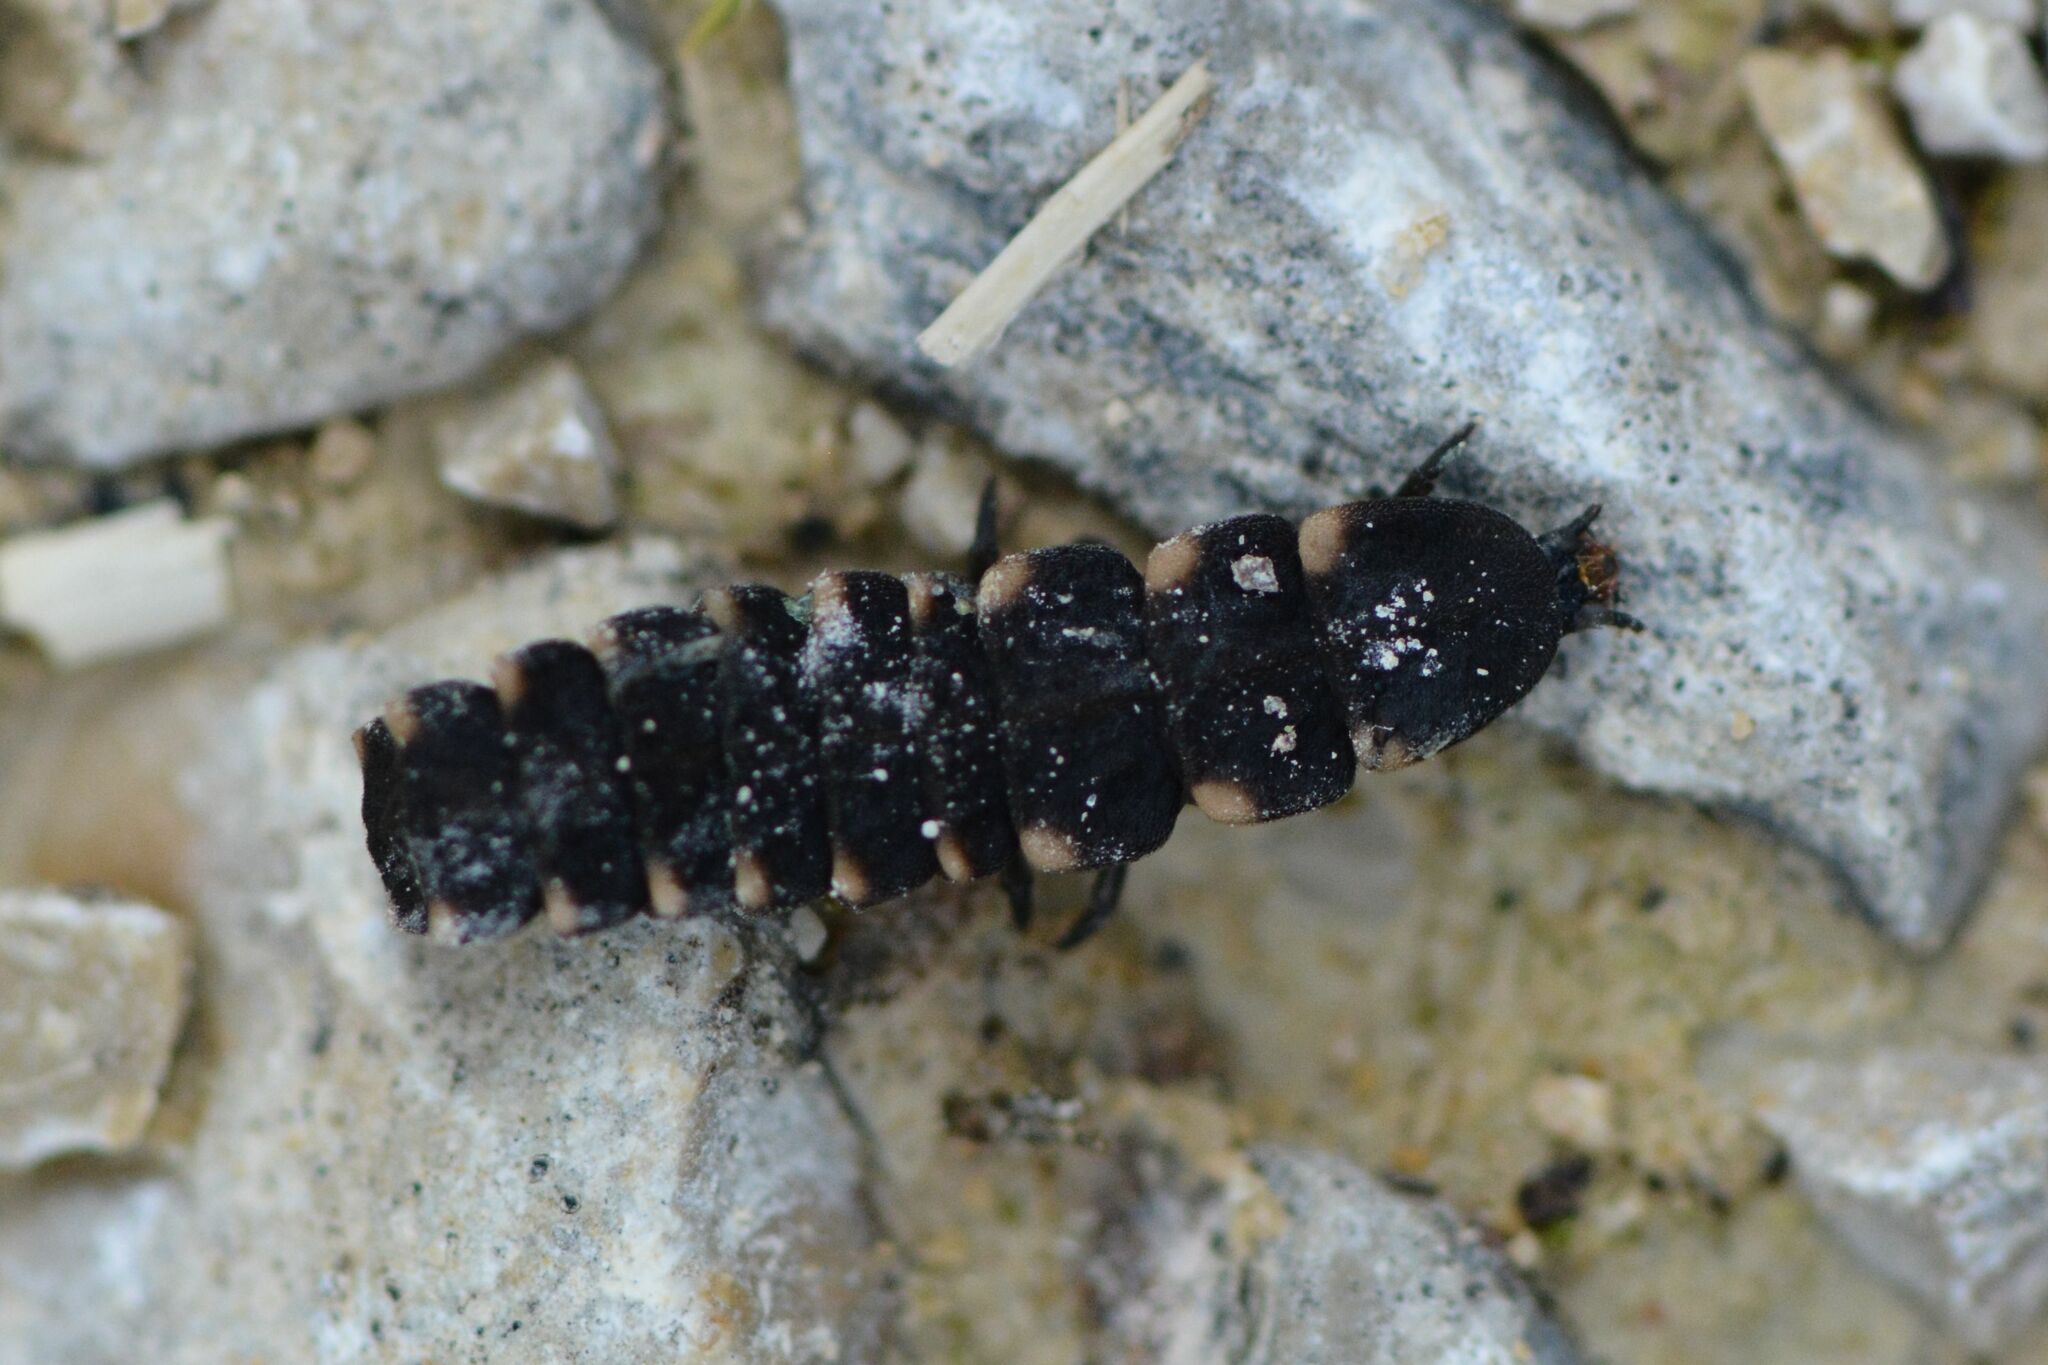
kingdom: Animalia
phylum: Arthropoda
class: Insecta
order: Coleoptera
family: Lampyridae
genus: Lampyris
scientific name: Lampyris noctiluca
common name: Glow-worm
